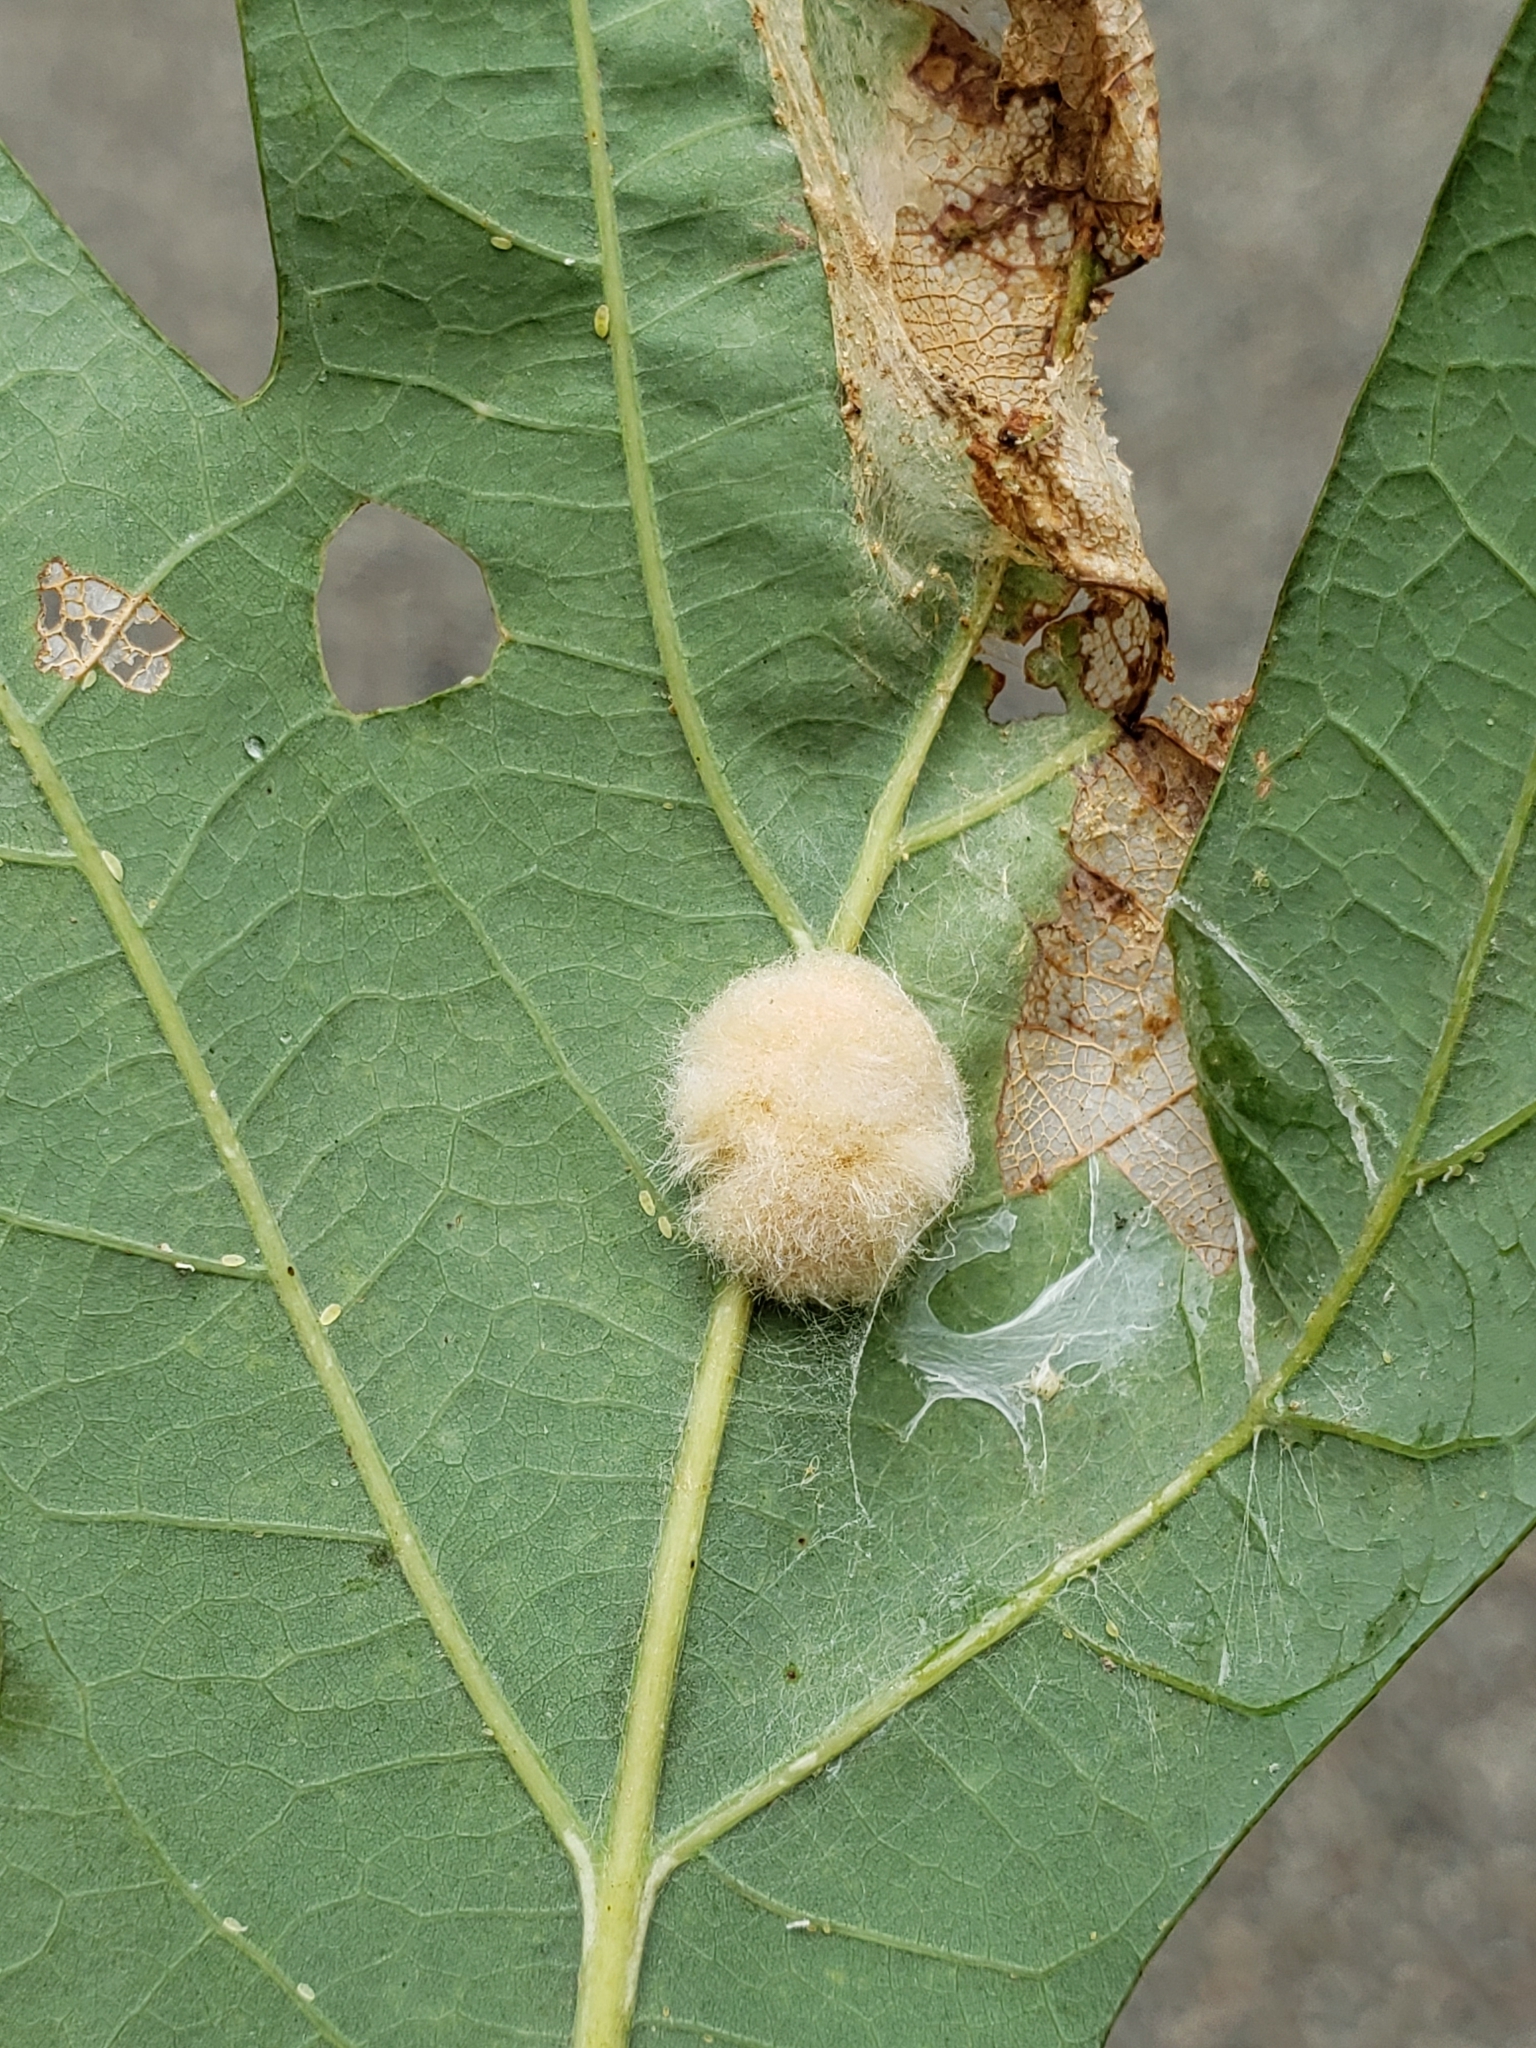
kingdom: Animalia
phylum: Arthropoda
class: Insecta
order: Hymenoptera
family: Cynipidae
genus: Andricus
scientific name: Andricus quercusflocci
